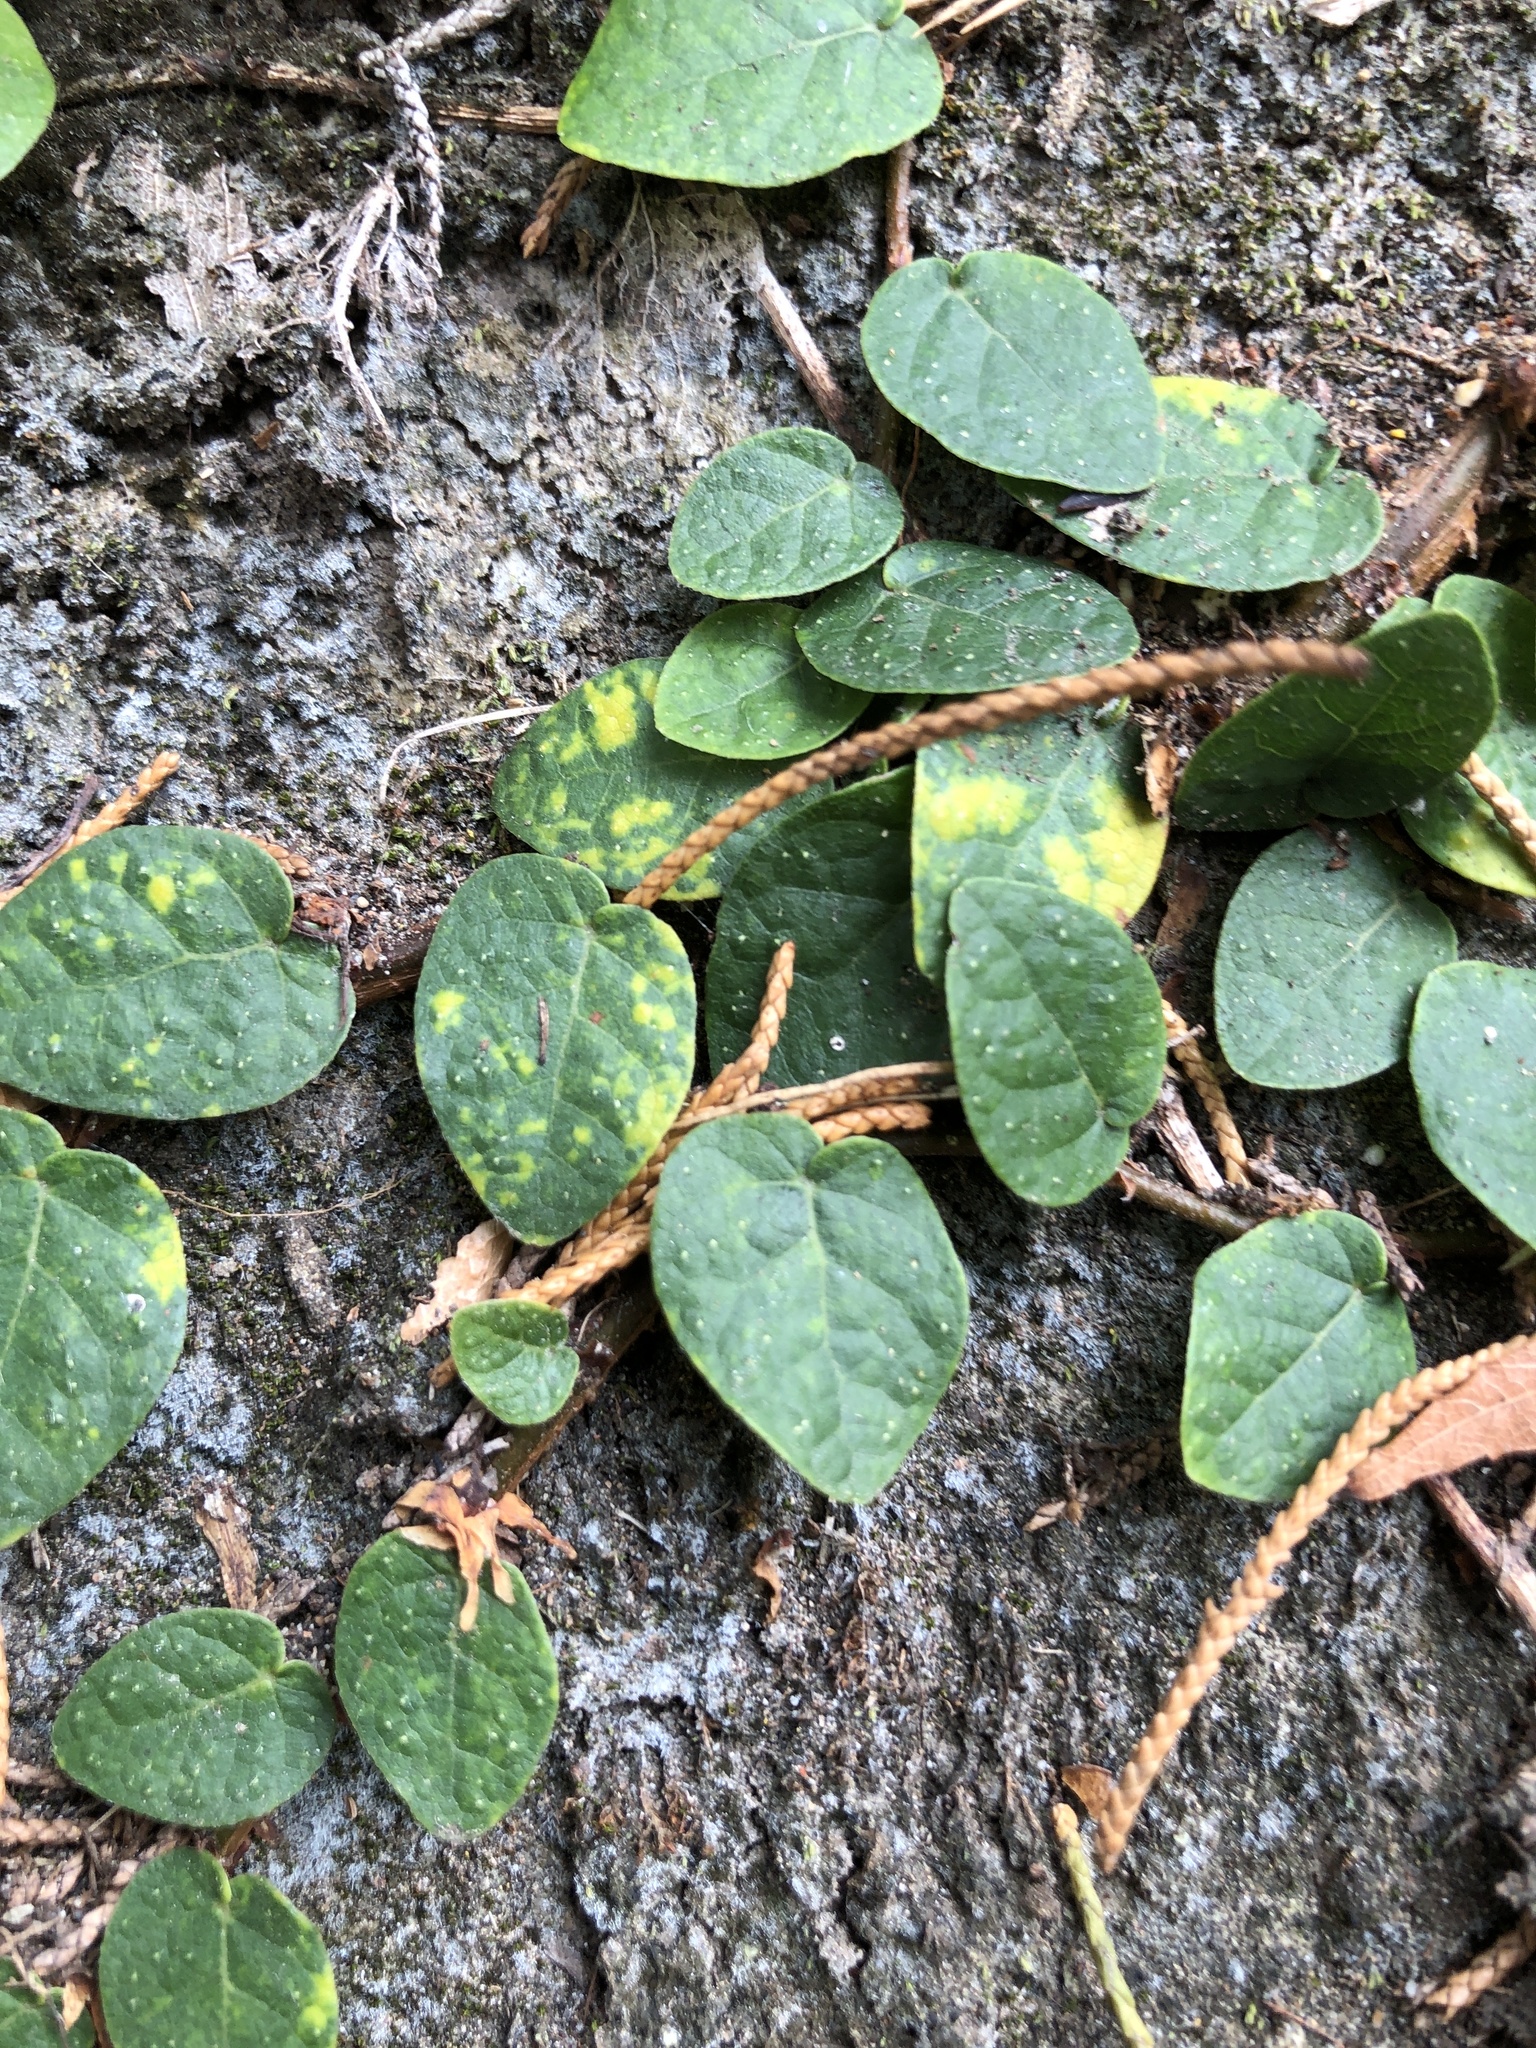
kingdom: Plantae
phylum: Tracheophyta
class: Magnoliopsida
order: Rosales
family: Moraceae
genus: Ficus
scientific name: Ficus pumila
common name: Climbingfig
